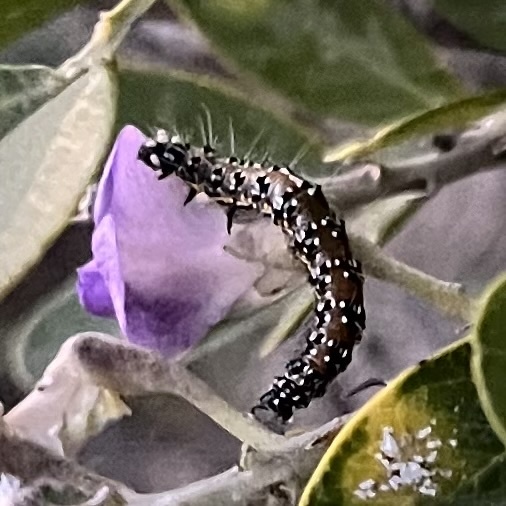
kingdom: Animalia
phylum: Arthropoda
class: Insecta
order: Lepidoptera
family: Crambidae
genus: Uresiphita
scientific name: Uresiphita reversalis
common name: Genista broom moth
